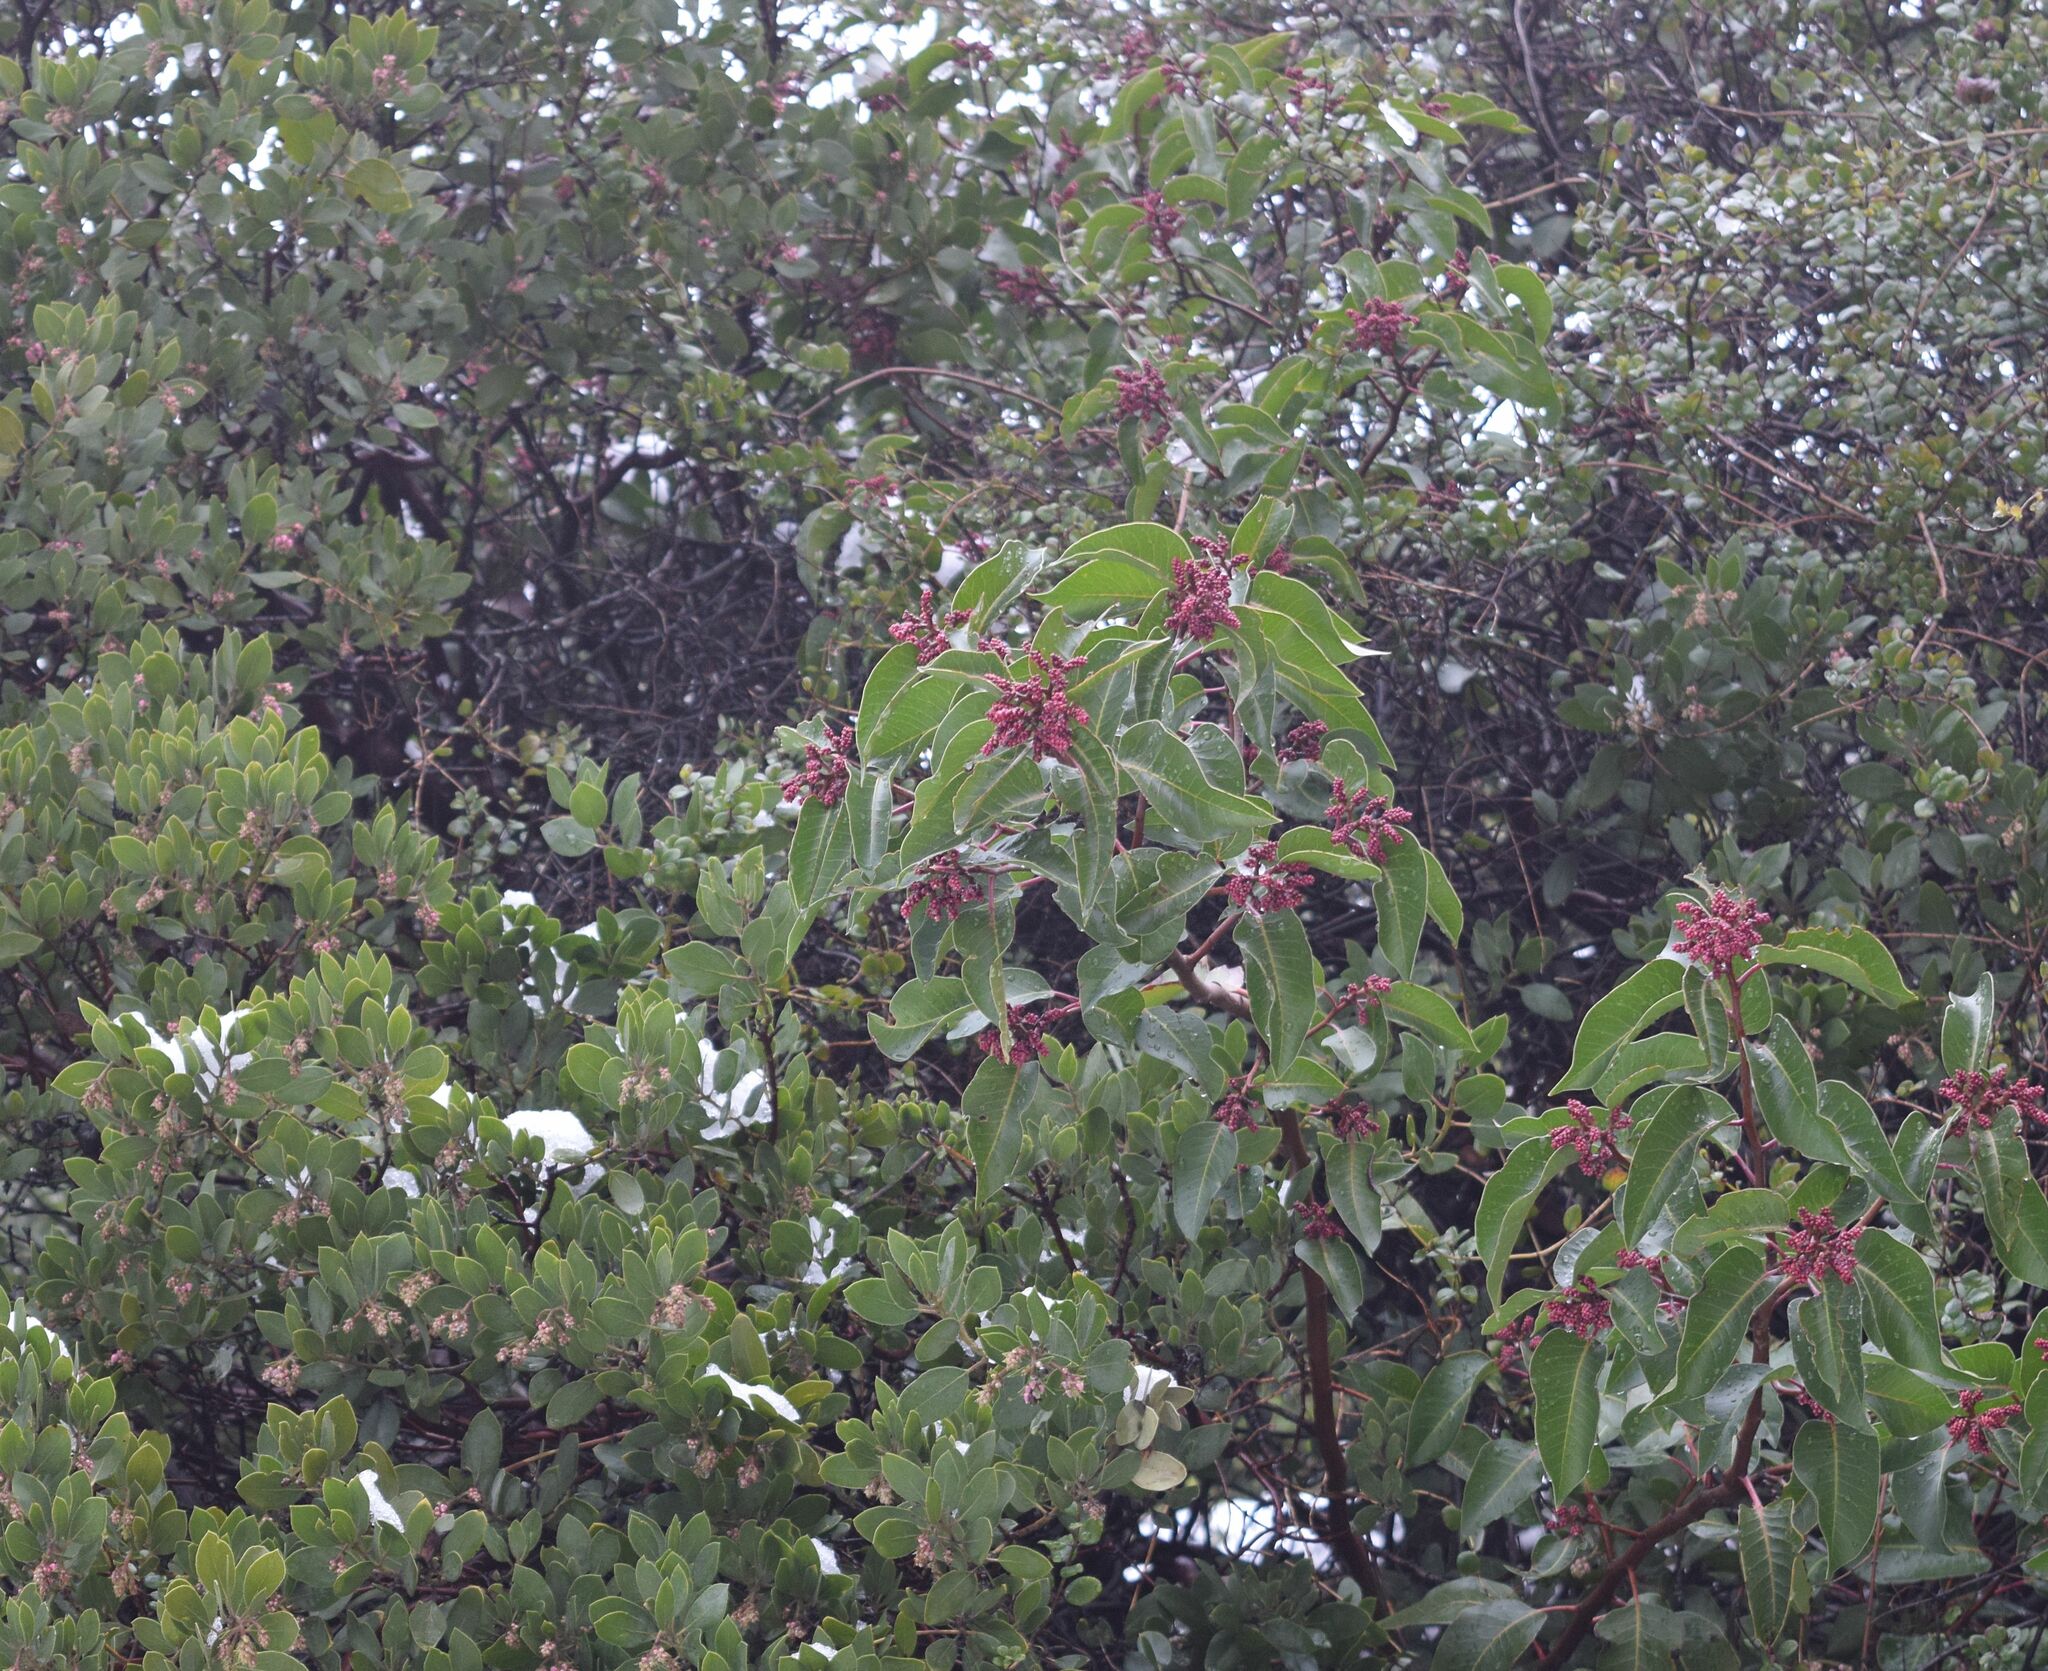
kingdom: Plantae
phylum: Tracheophyta
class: Magnoliopsida
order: Sapindales
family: Anacardiaceae
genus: Rhus
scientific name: Rhus ovata
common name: Sugar sumac
